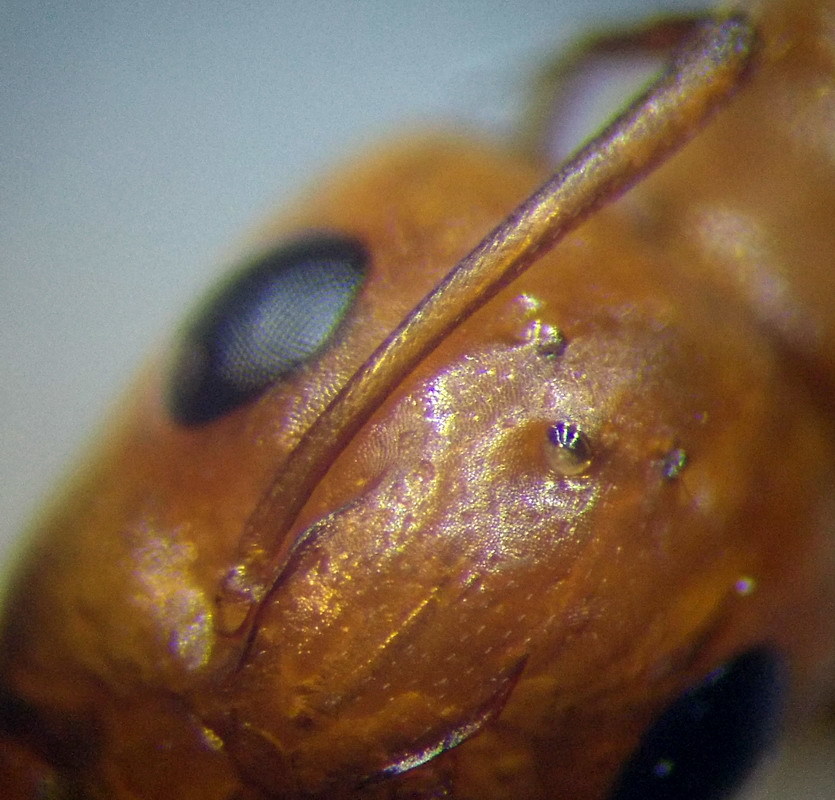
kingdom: Animalia
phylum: Arthropoda
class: Insecta
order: Hymenoptera
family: Formicidae
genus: Camponotus
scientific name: Camponotus turkestanus
